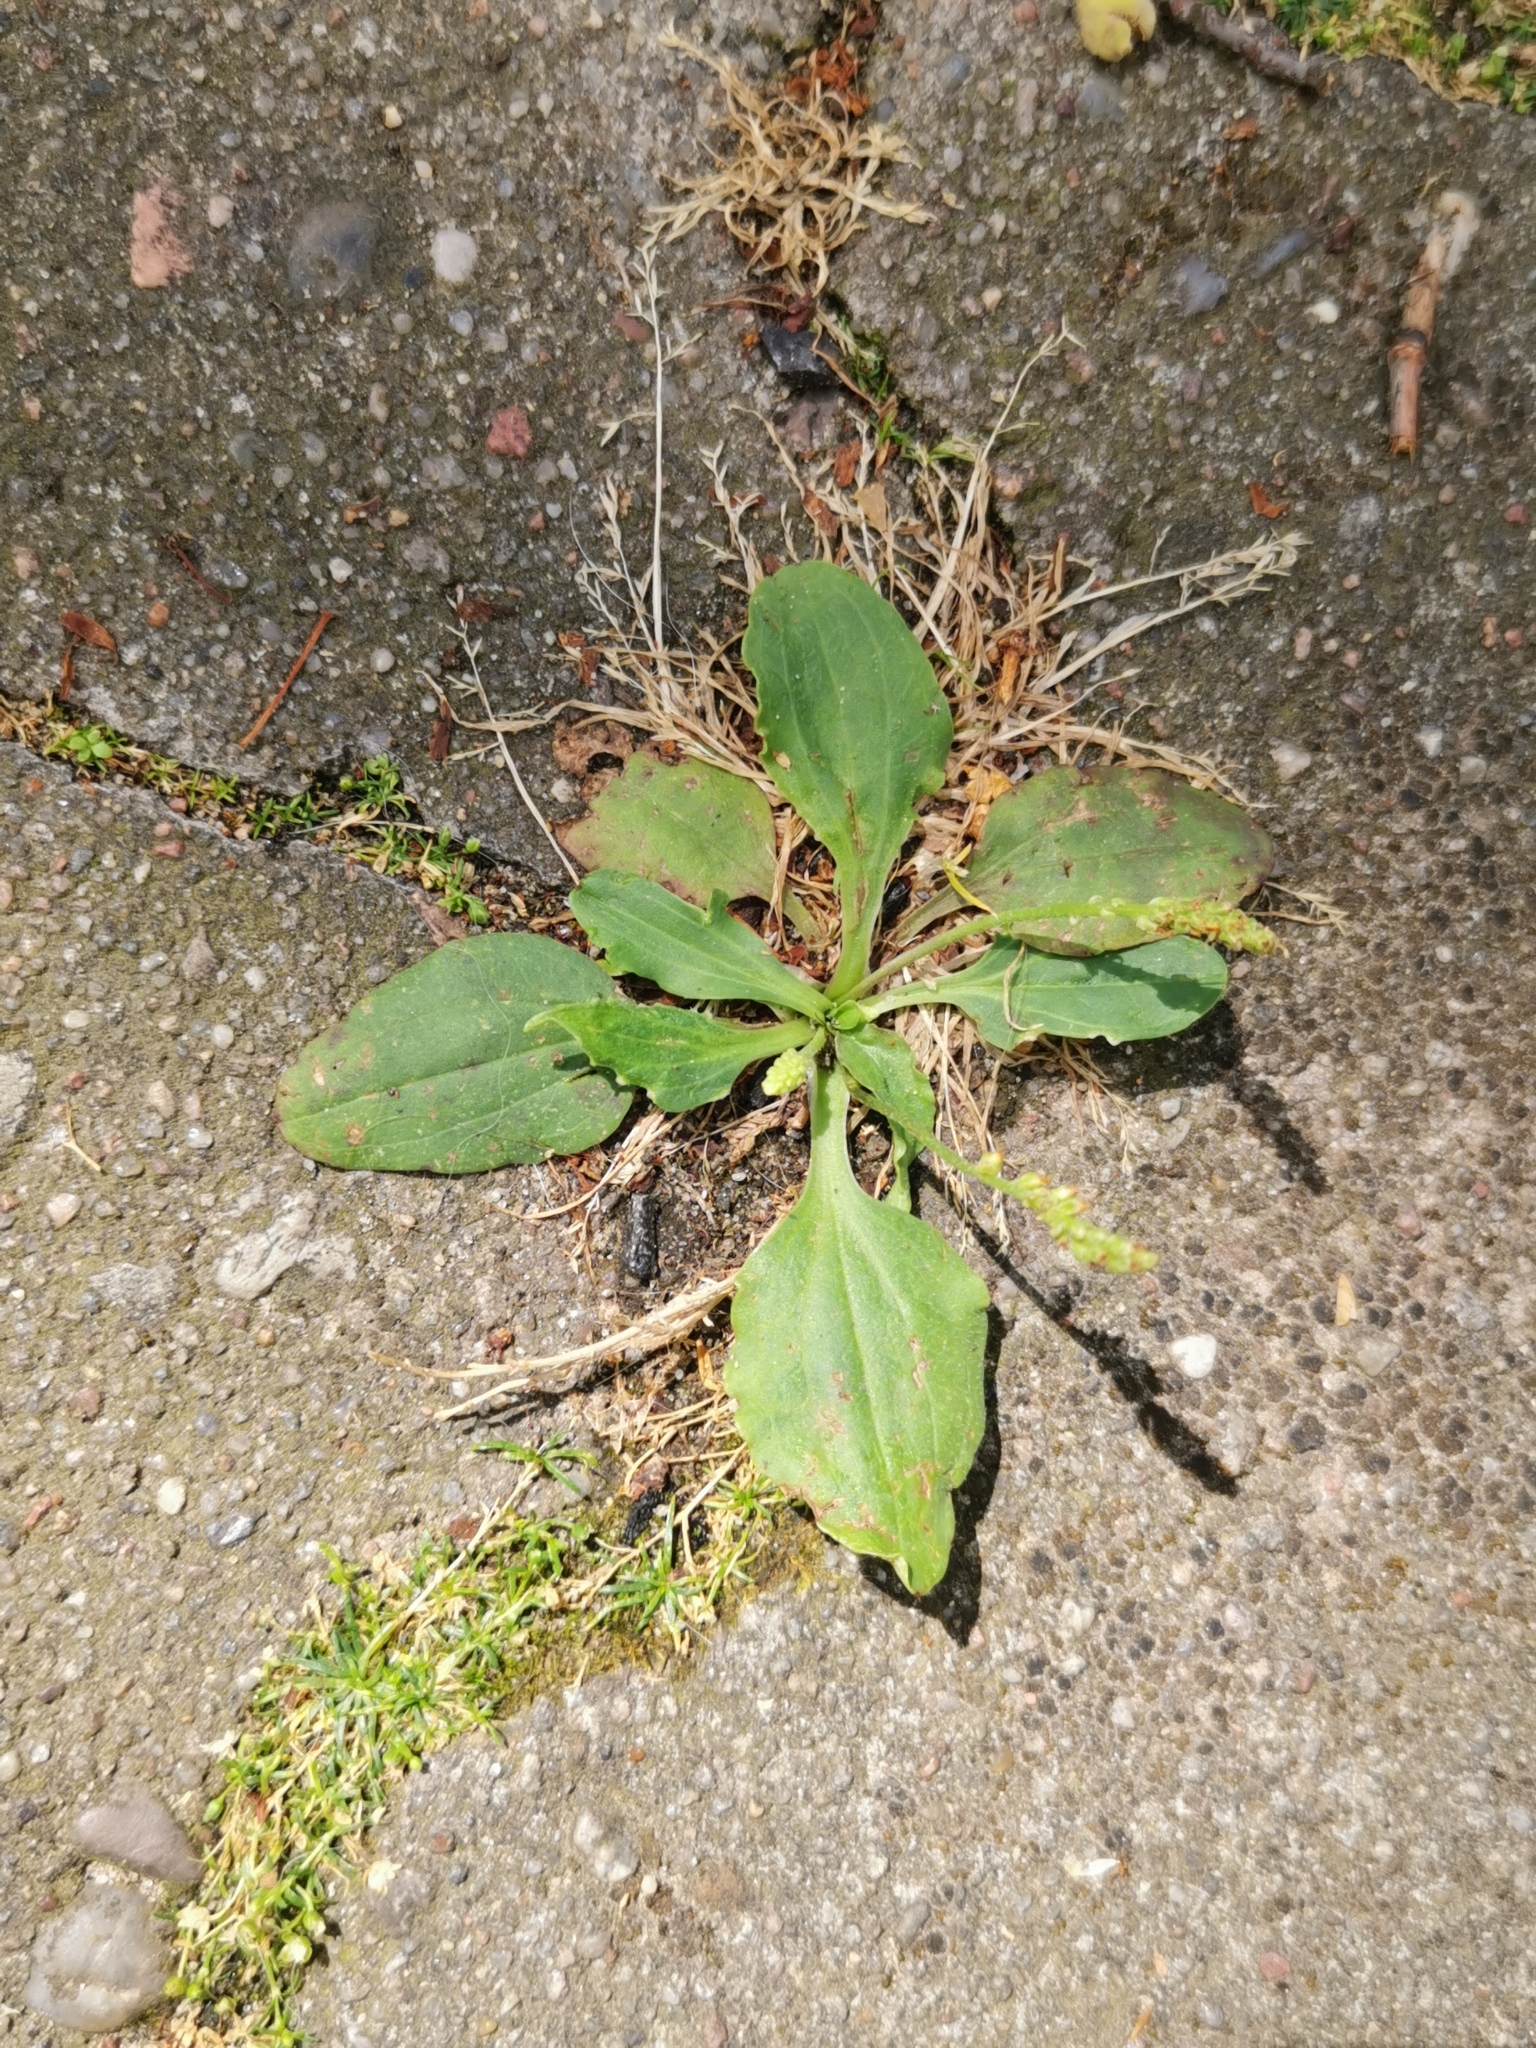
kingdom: Plantae
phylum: Tracheophyta
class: Magnoliopsida
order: Lamiales
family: Plantaginaceae
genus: Plantago
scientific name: Plantago major
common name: Common plantain
